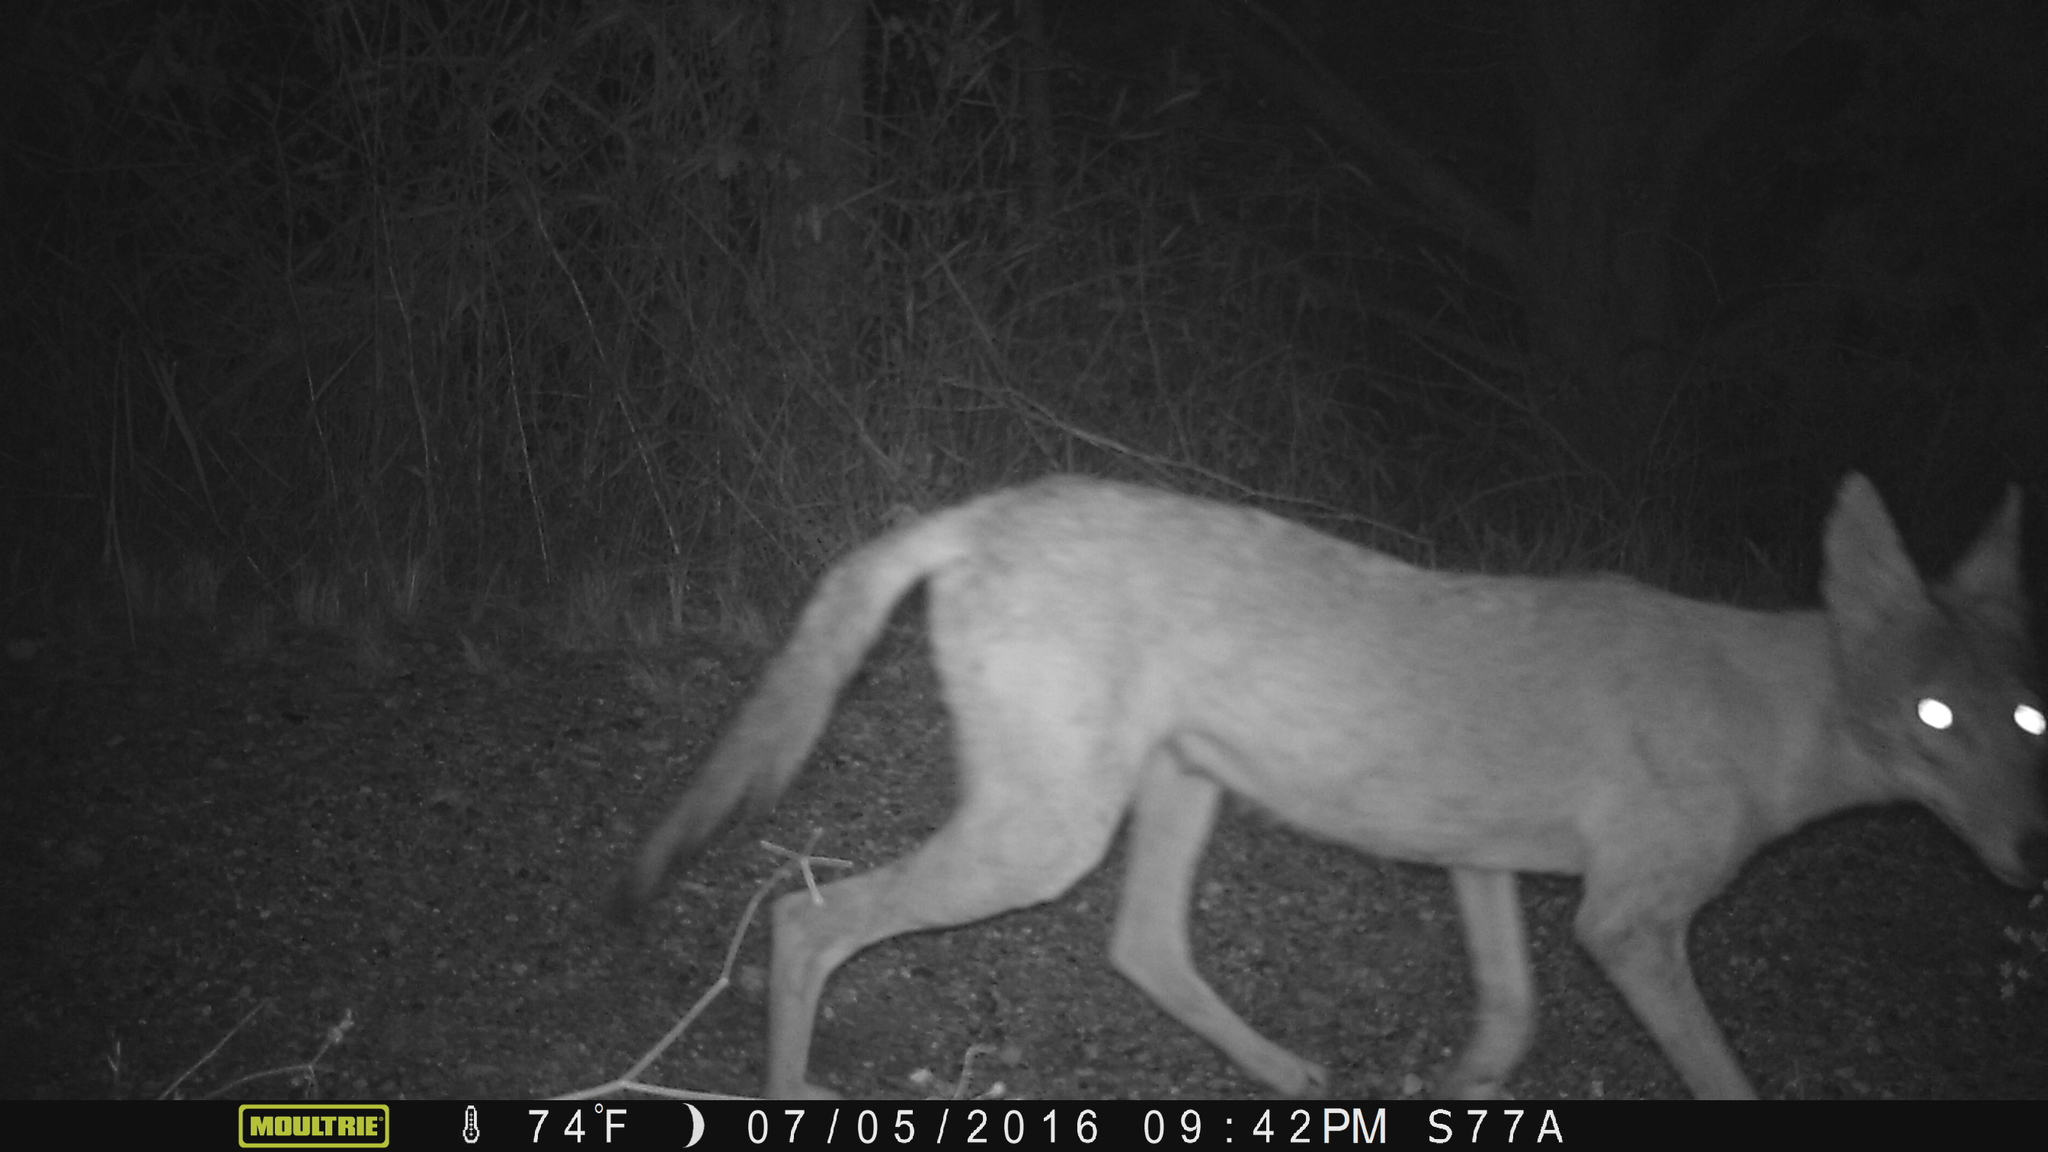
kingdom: Animalia
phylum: Chordata
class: Mammalia
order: Carnivora
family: Canidae
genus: Canis
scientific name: Canis latrans
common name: Coyote
